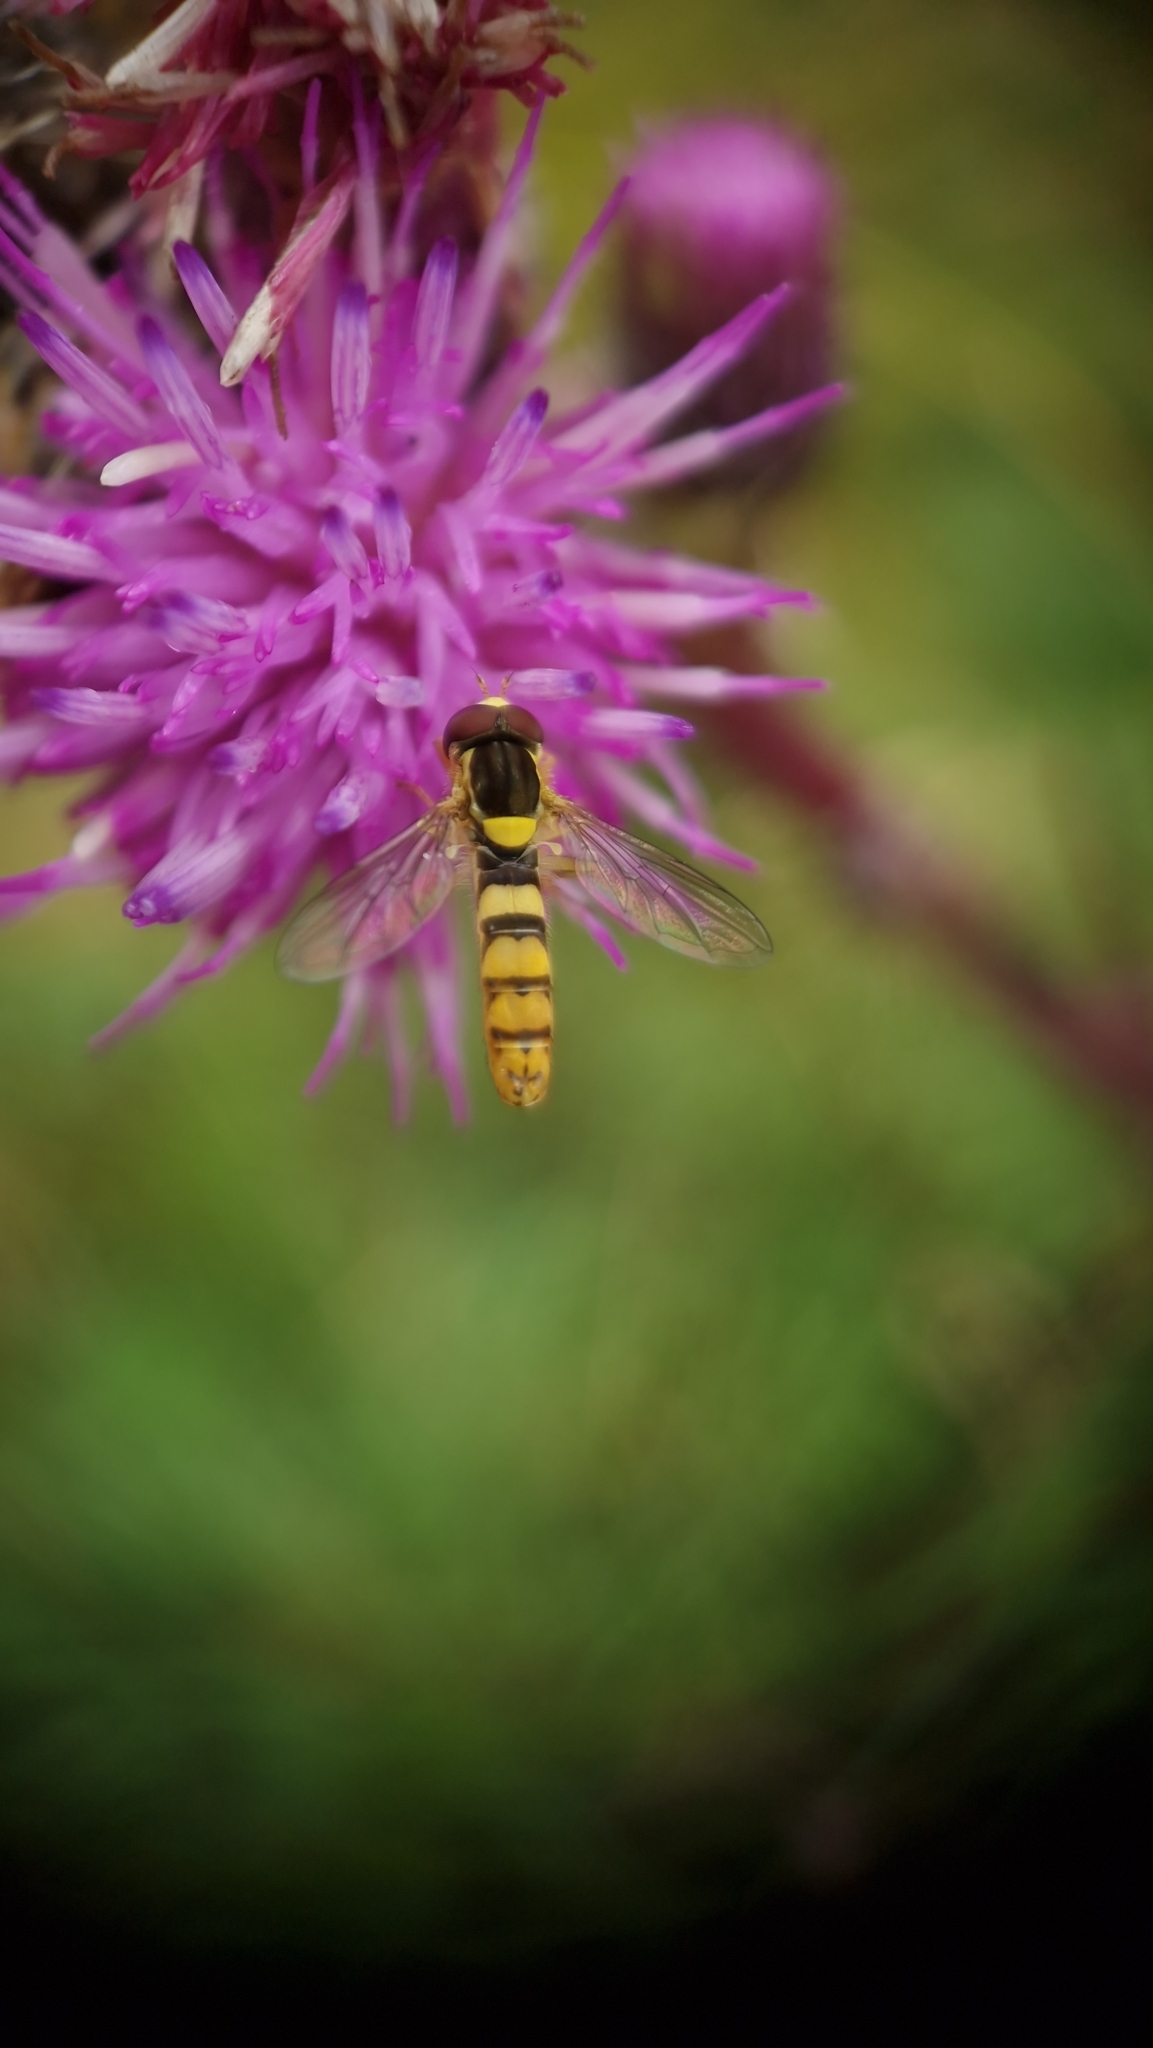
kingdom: Animalia
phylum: Arthropoda
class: Insecta
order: Diptera
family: Syrphidae
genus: Sphaerophoria
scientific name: Sphaerophoria
